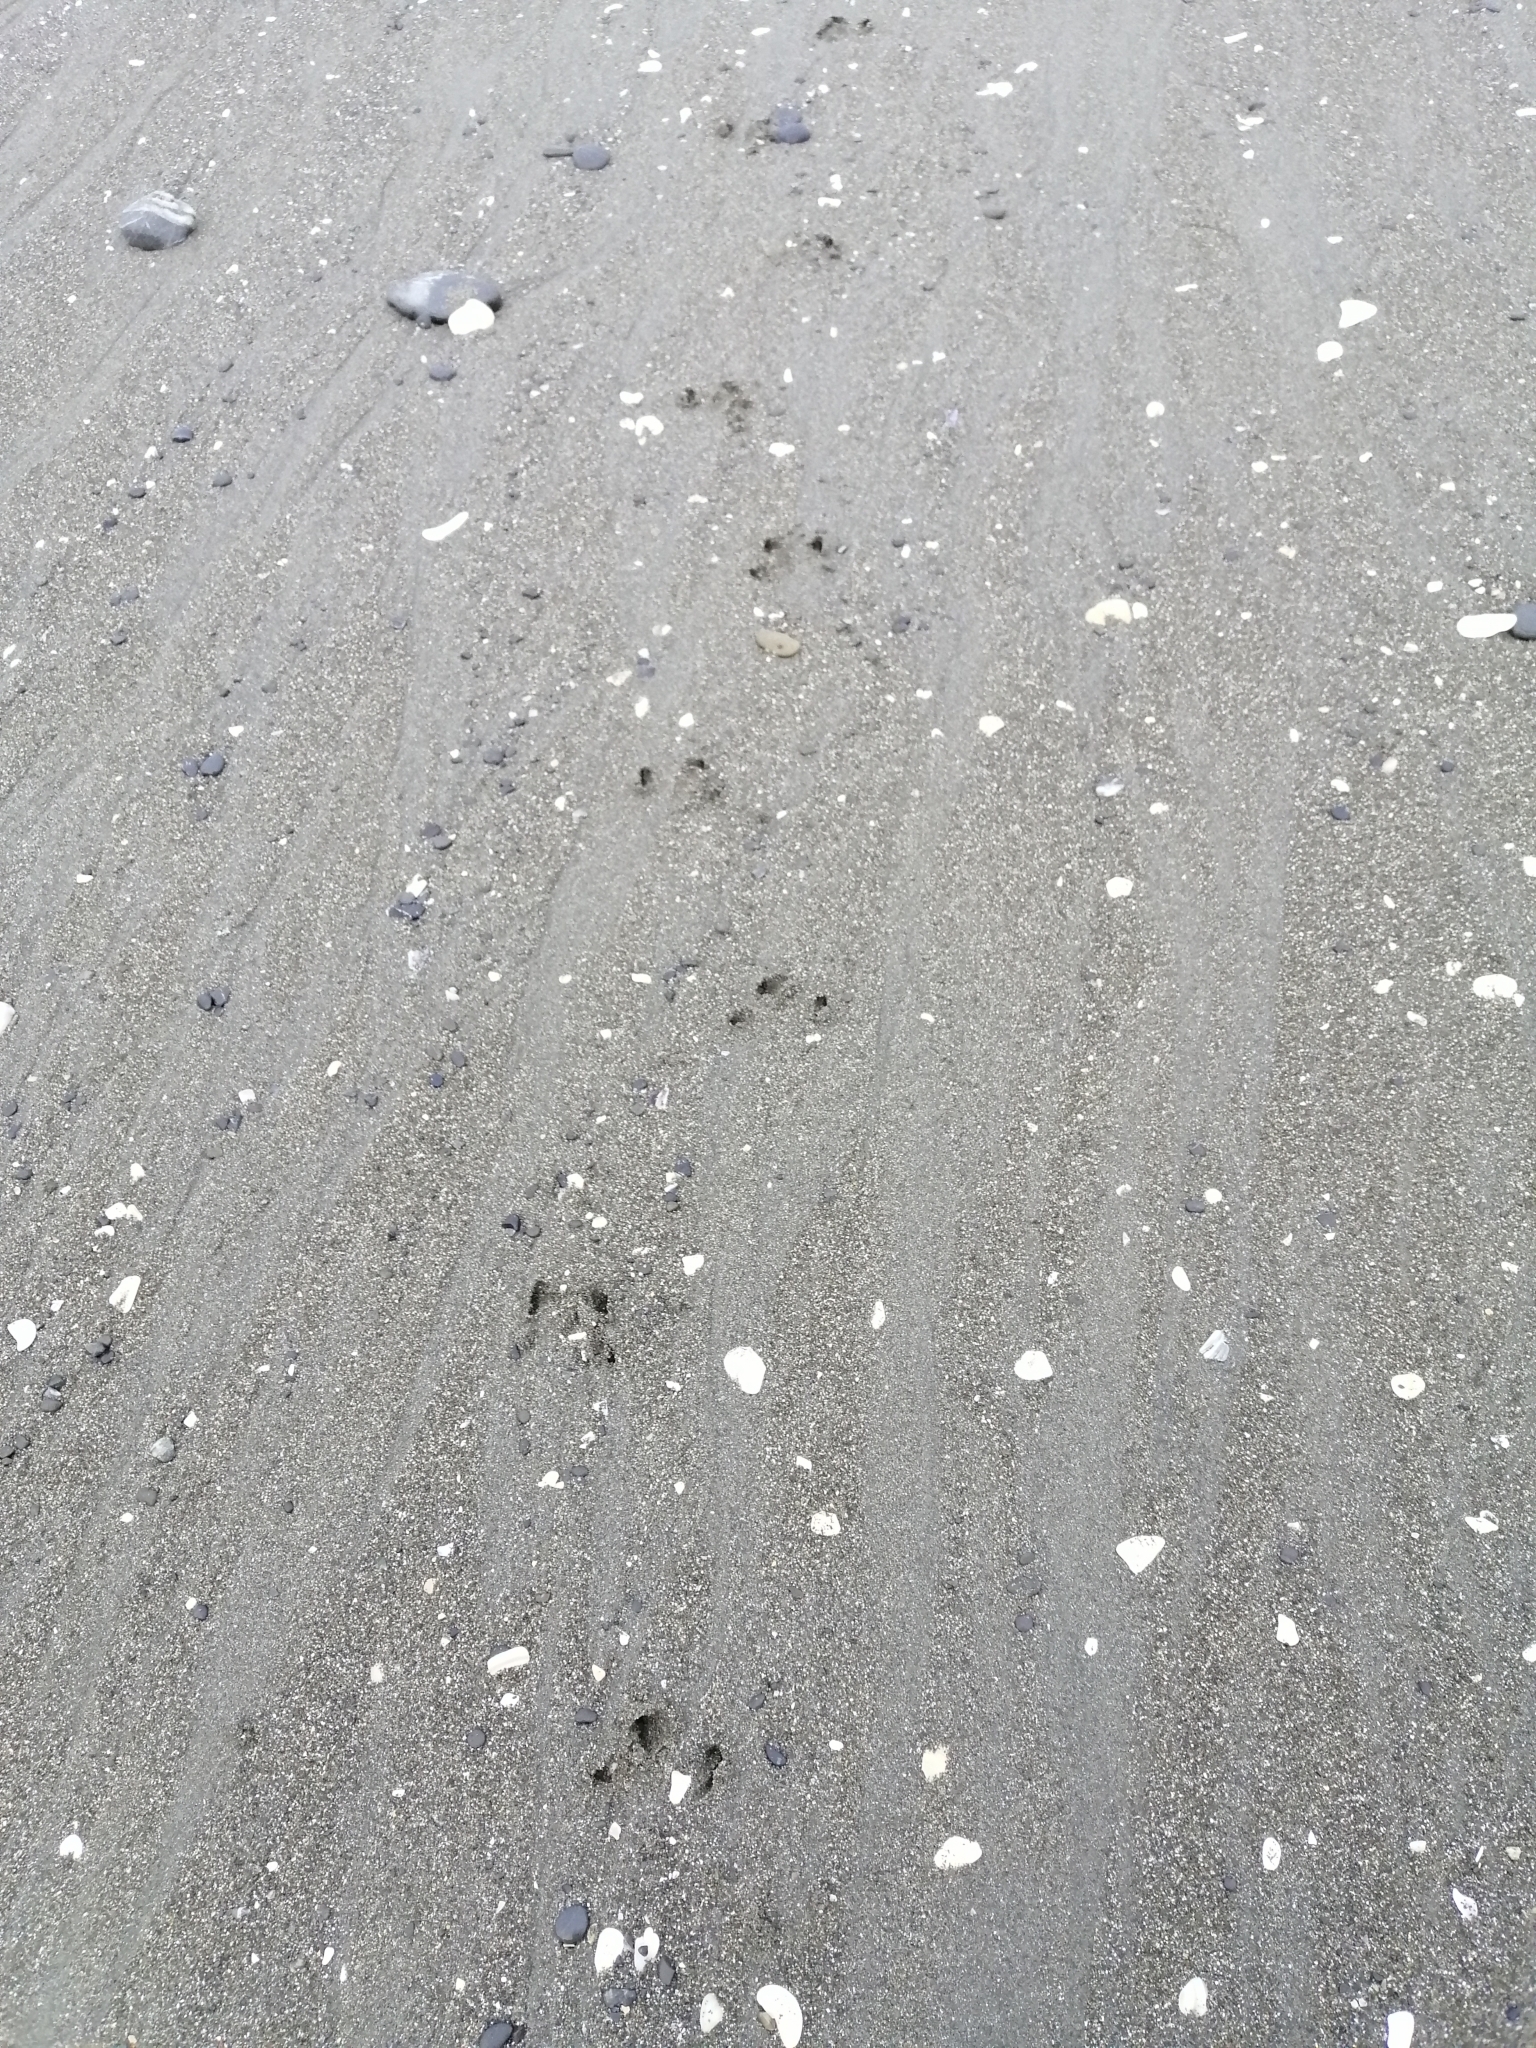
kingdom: Animalia
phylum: Chordata
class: Aves
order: Sphenisciformes
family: Spheniscidae
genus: Eudyptula
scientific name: Eudyptula minor
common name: Little penguin
